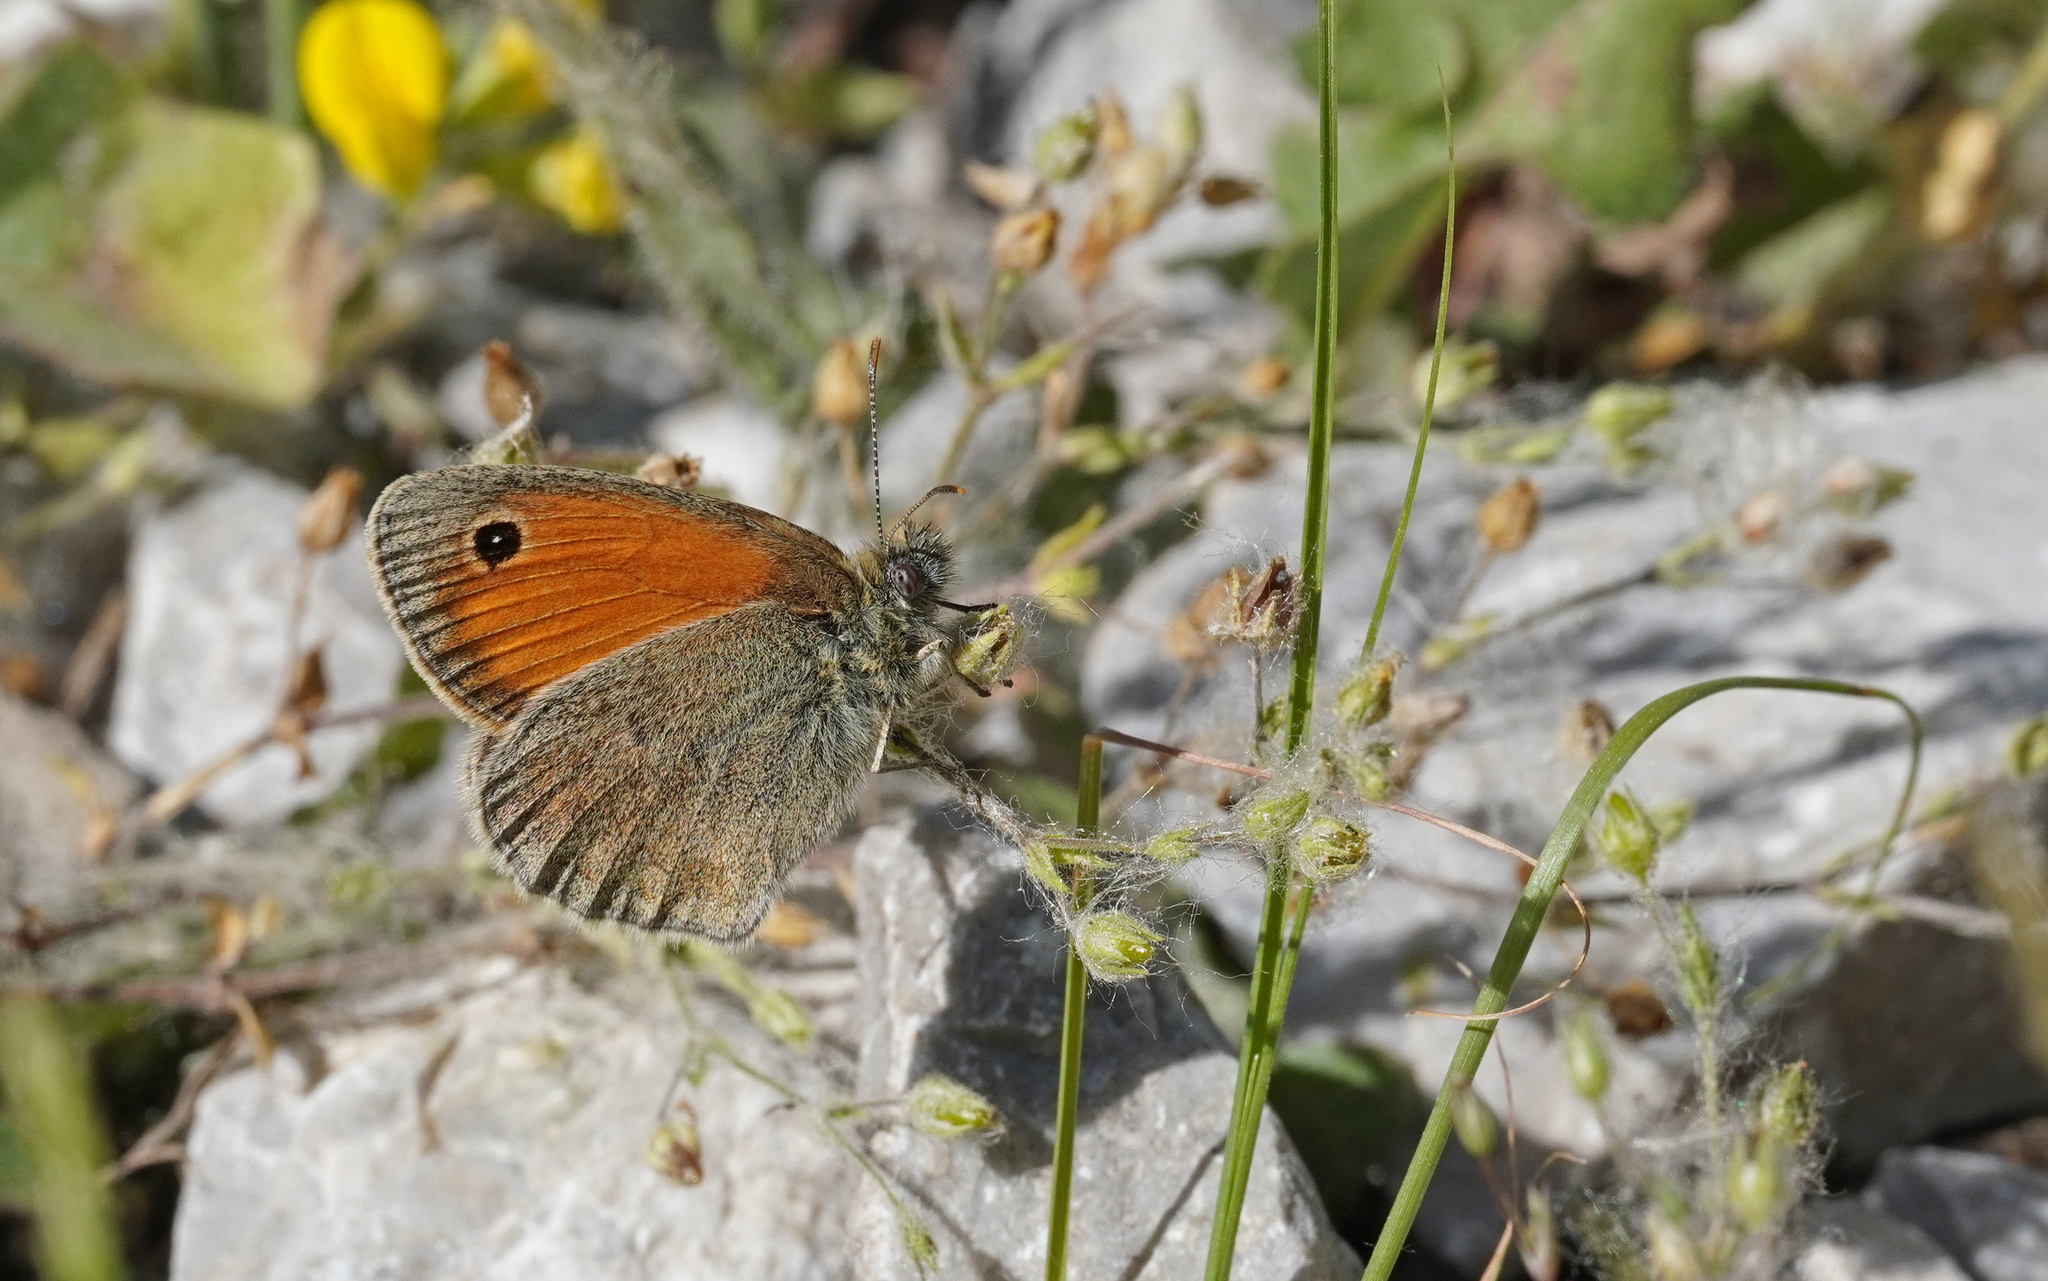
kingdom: Animalia
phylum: Arthropoda
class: Insecta
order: Lepidoptera
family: Nymphalidae
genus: Coenonympha
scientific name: Coenonympha pamphilus
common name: Small heath
